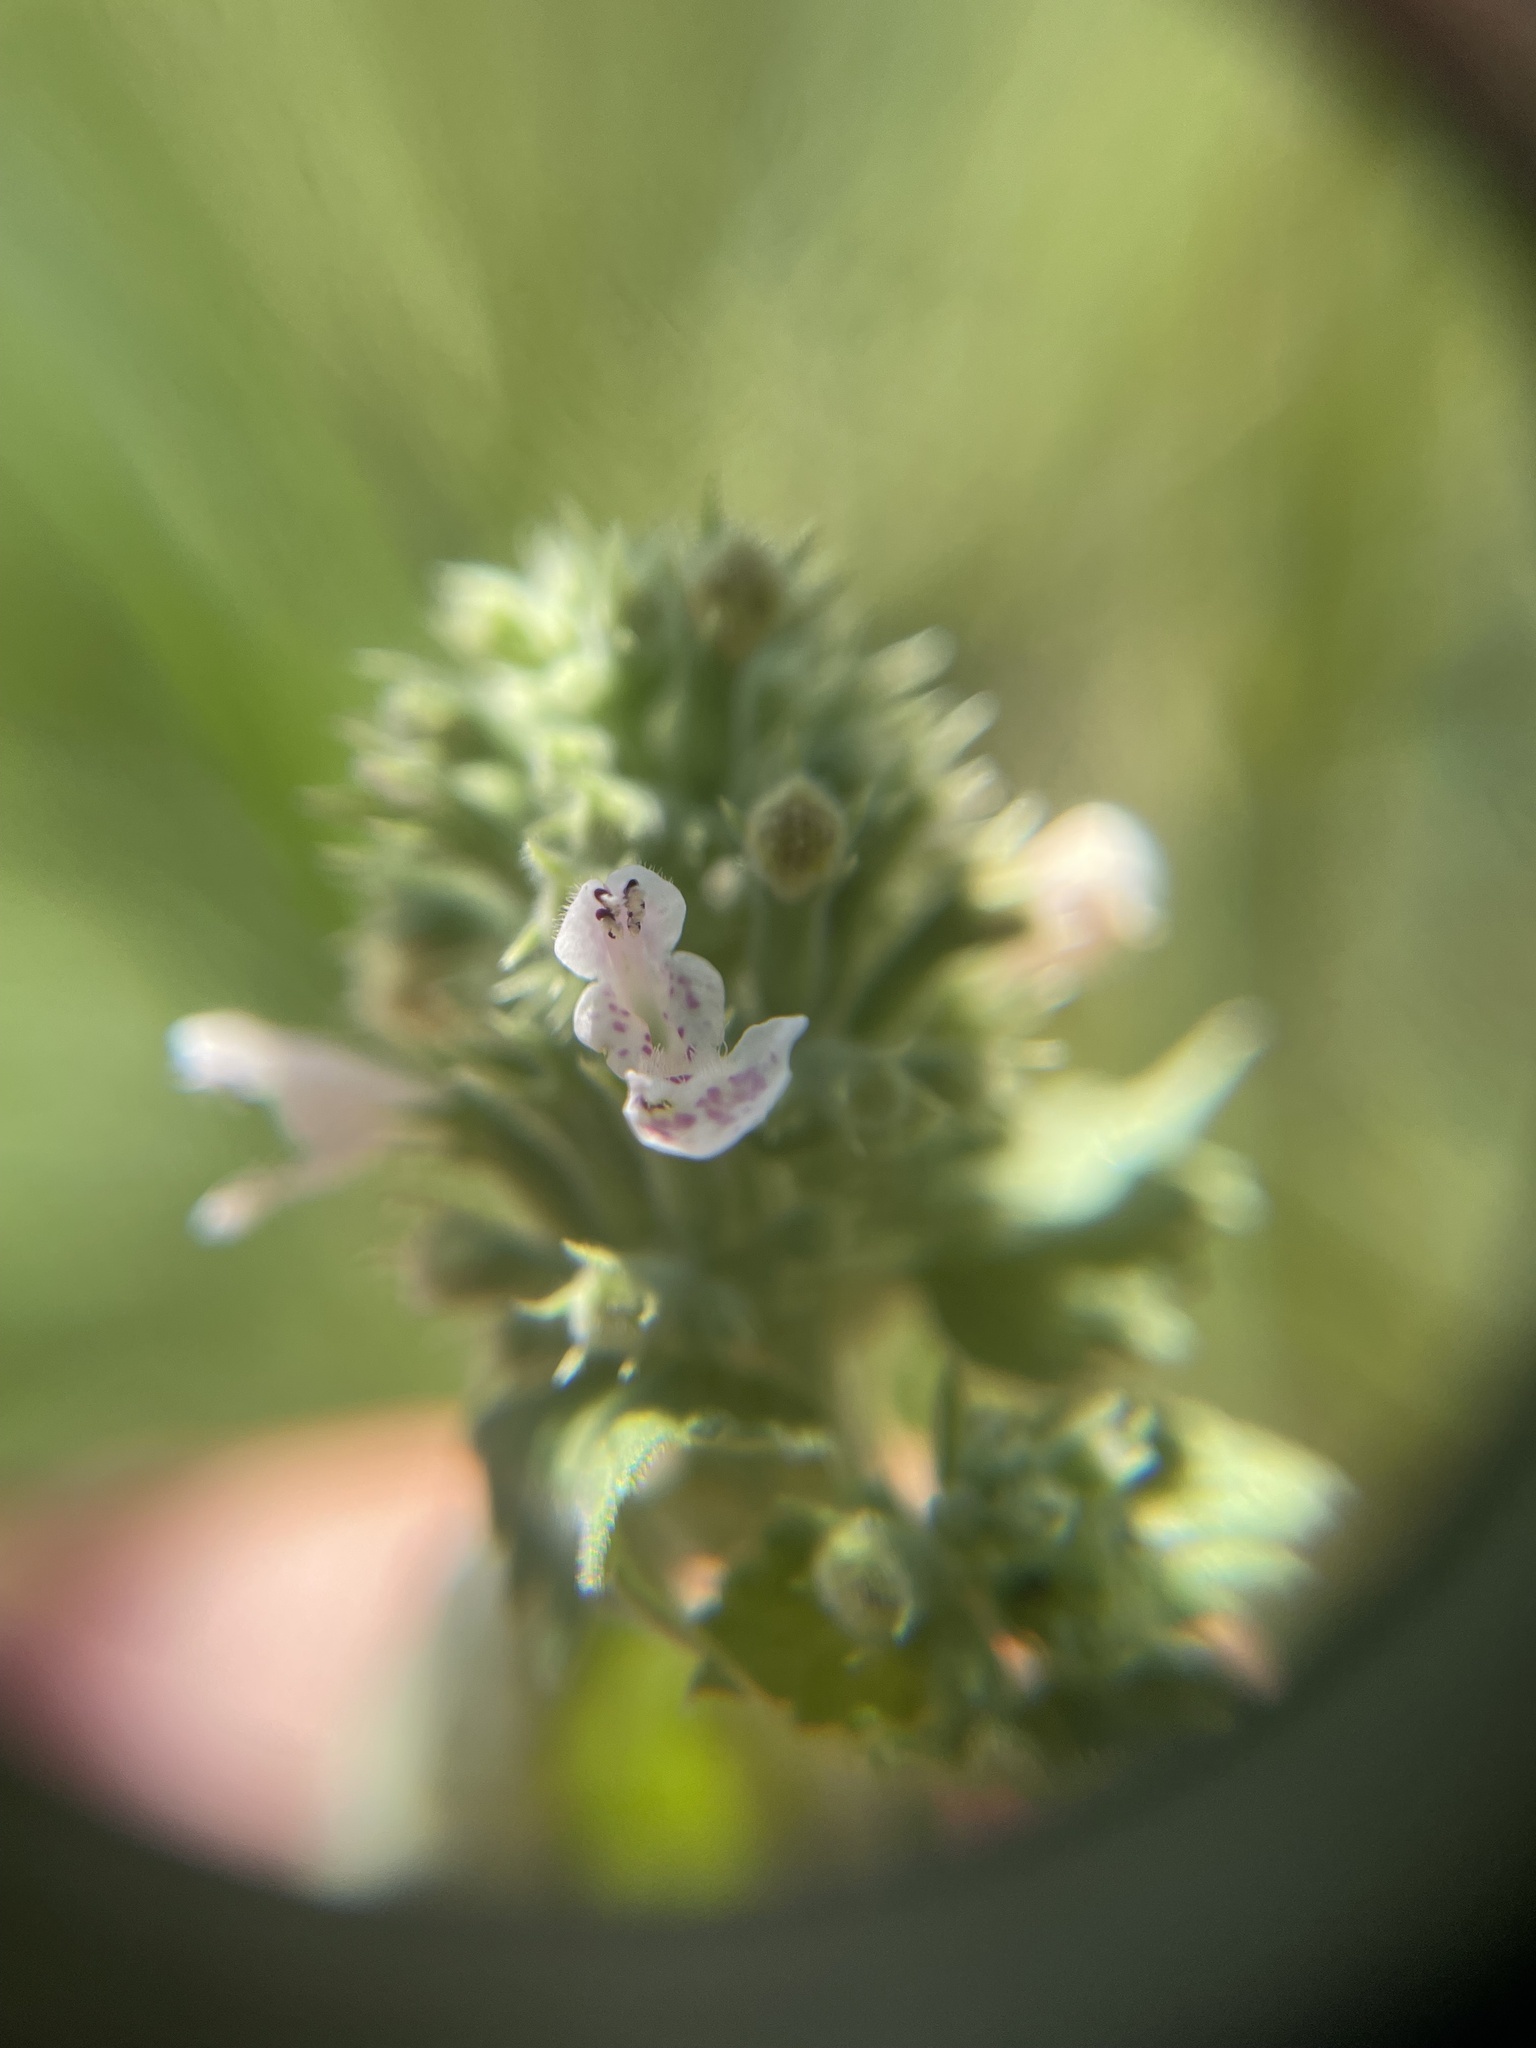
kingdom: Plantae
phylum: Tracheophyta
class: Magnoliopsida
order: Lamiales
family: Lamiaceae
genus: Nepeta
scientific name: Nepeta cataria
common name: Catnip
